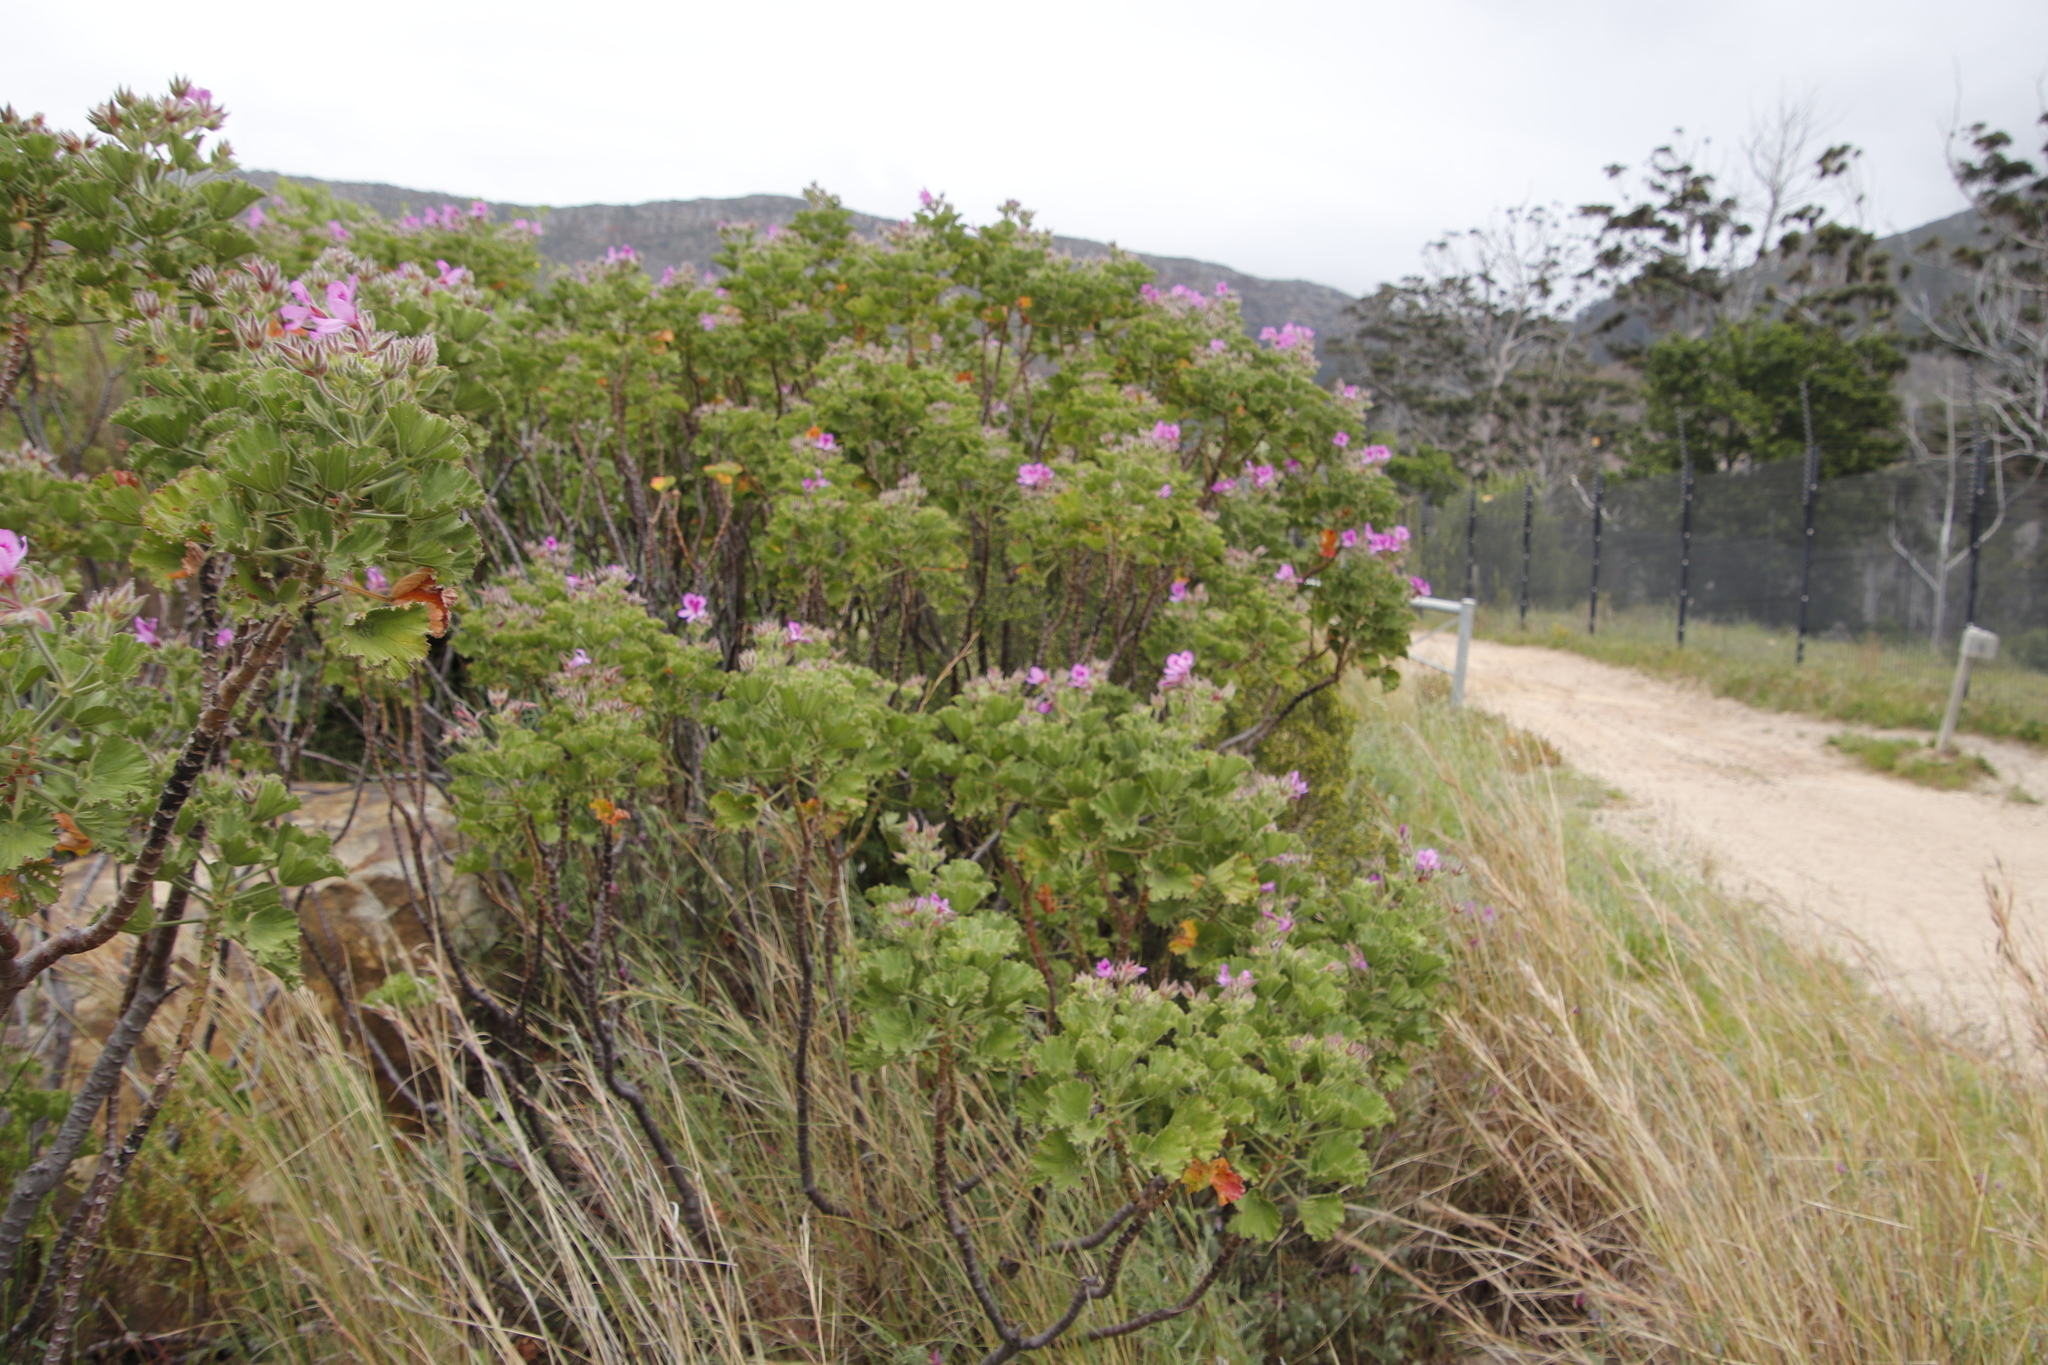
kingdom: Plantae
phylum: Tracheophyta
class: Magnoliopsida
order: Geraniales
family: Geraniaceae
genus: Pelargonium
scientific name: Pelargonium cucullatum
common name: Tree pelargonium
